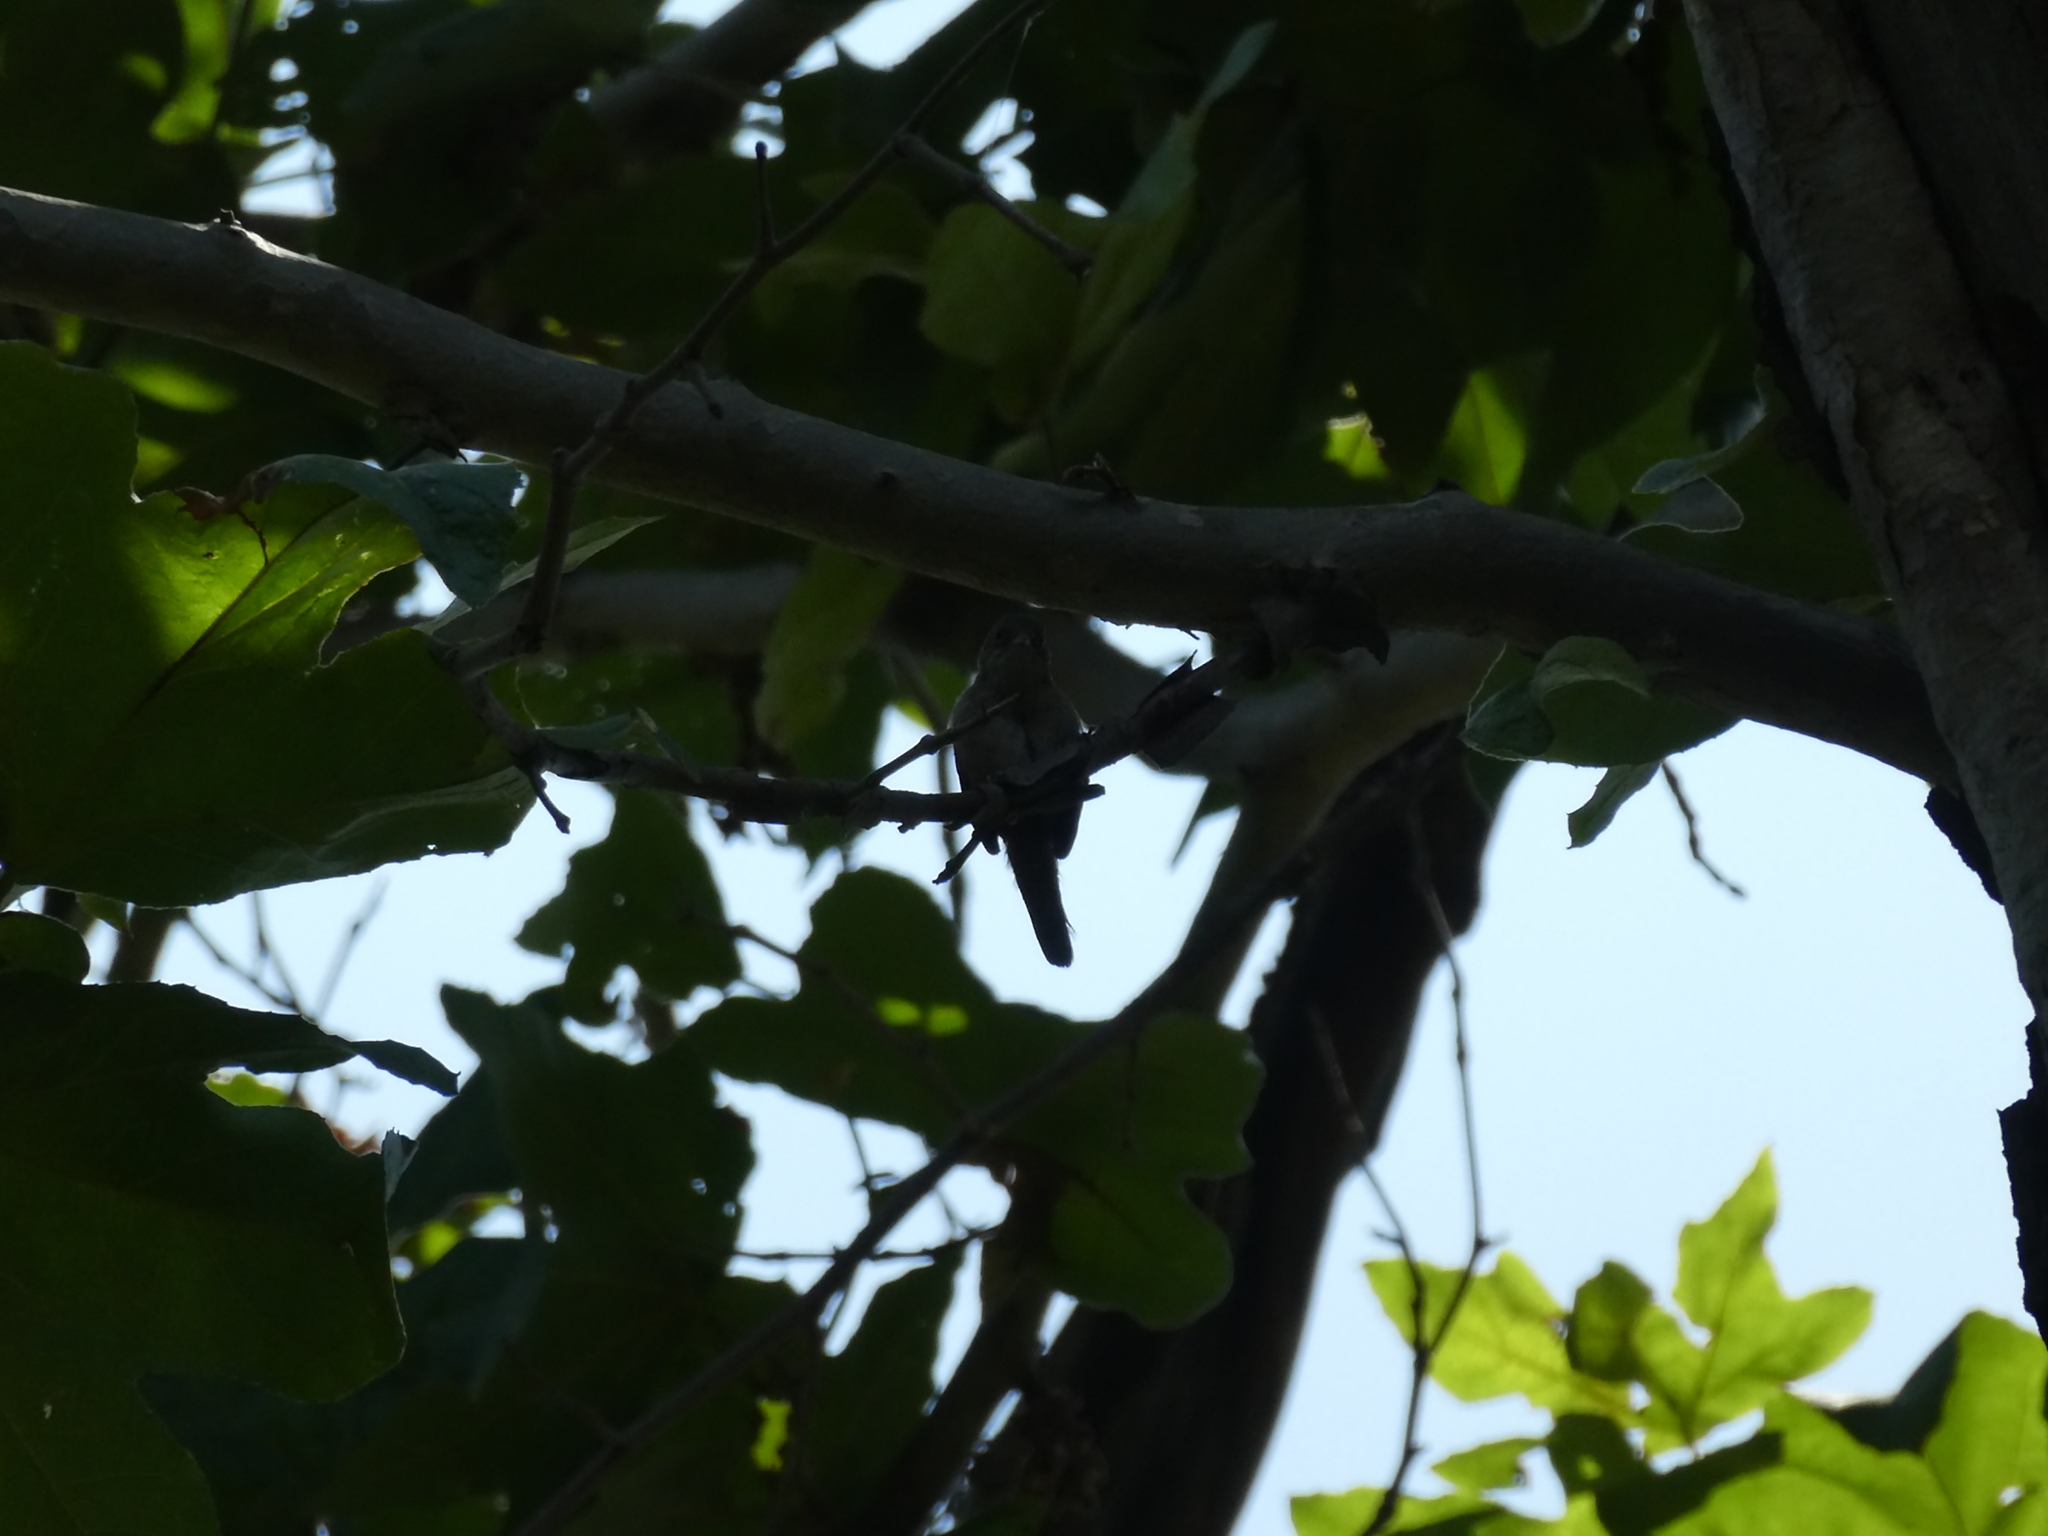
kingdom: Animalia
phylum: Chordata
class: Aves
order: Passeriformes
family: Troglodytidae
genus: Thryomanes
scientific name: Thryomanes bewickii
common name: Bewick's wren
